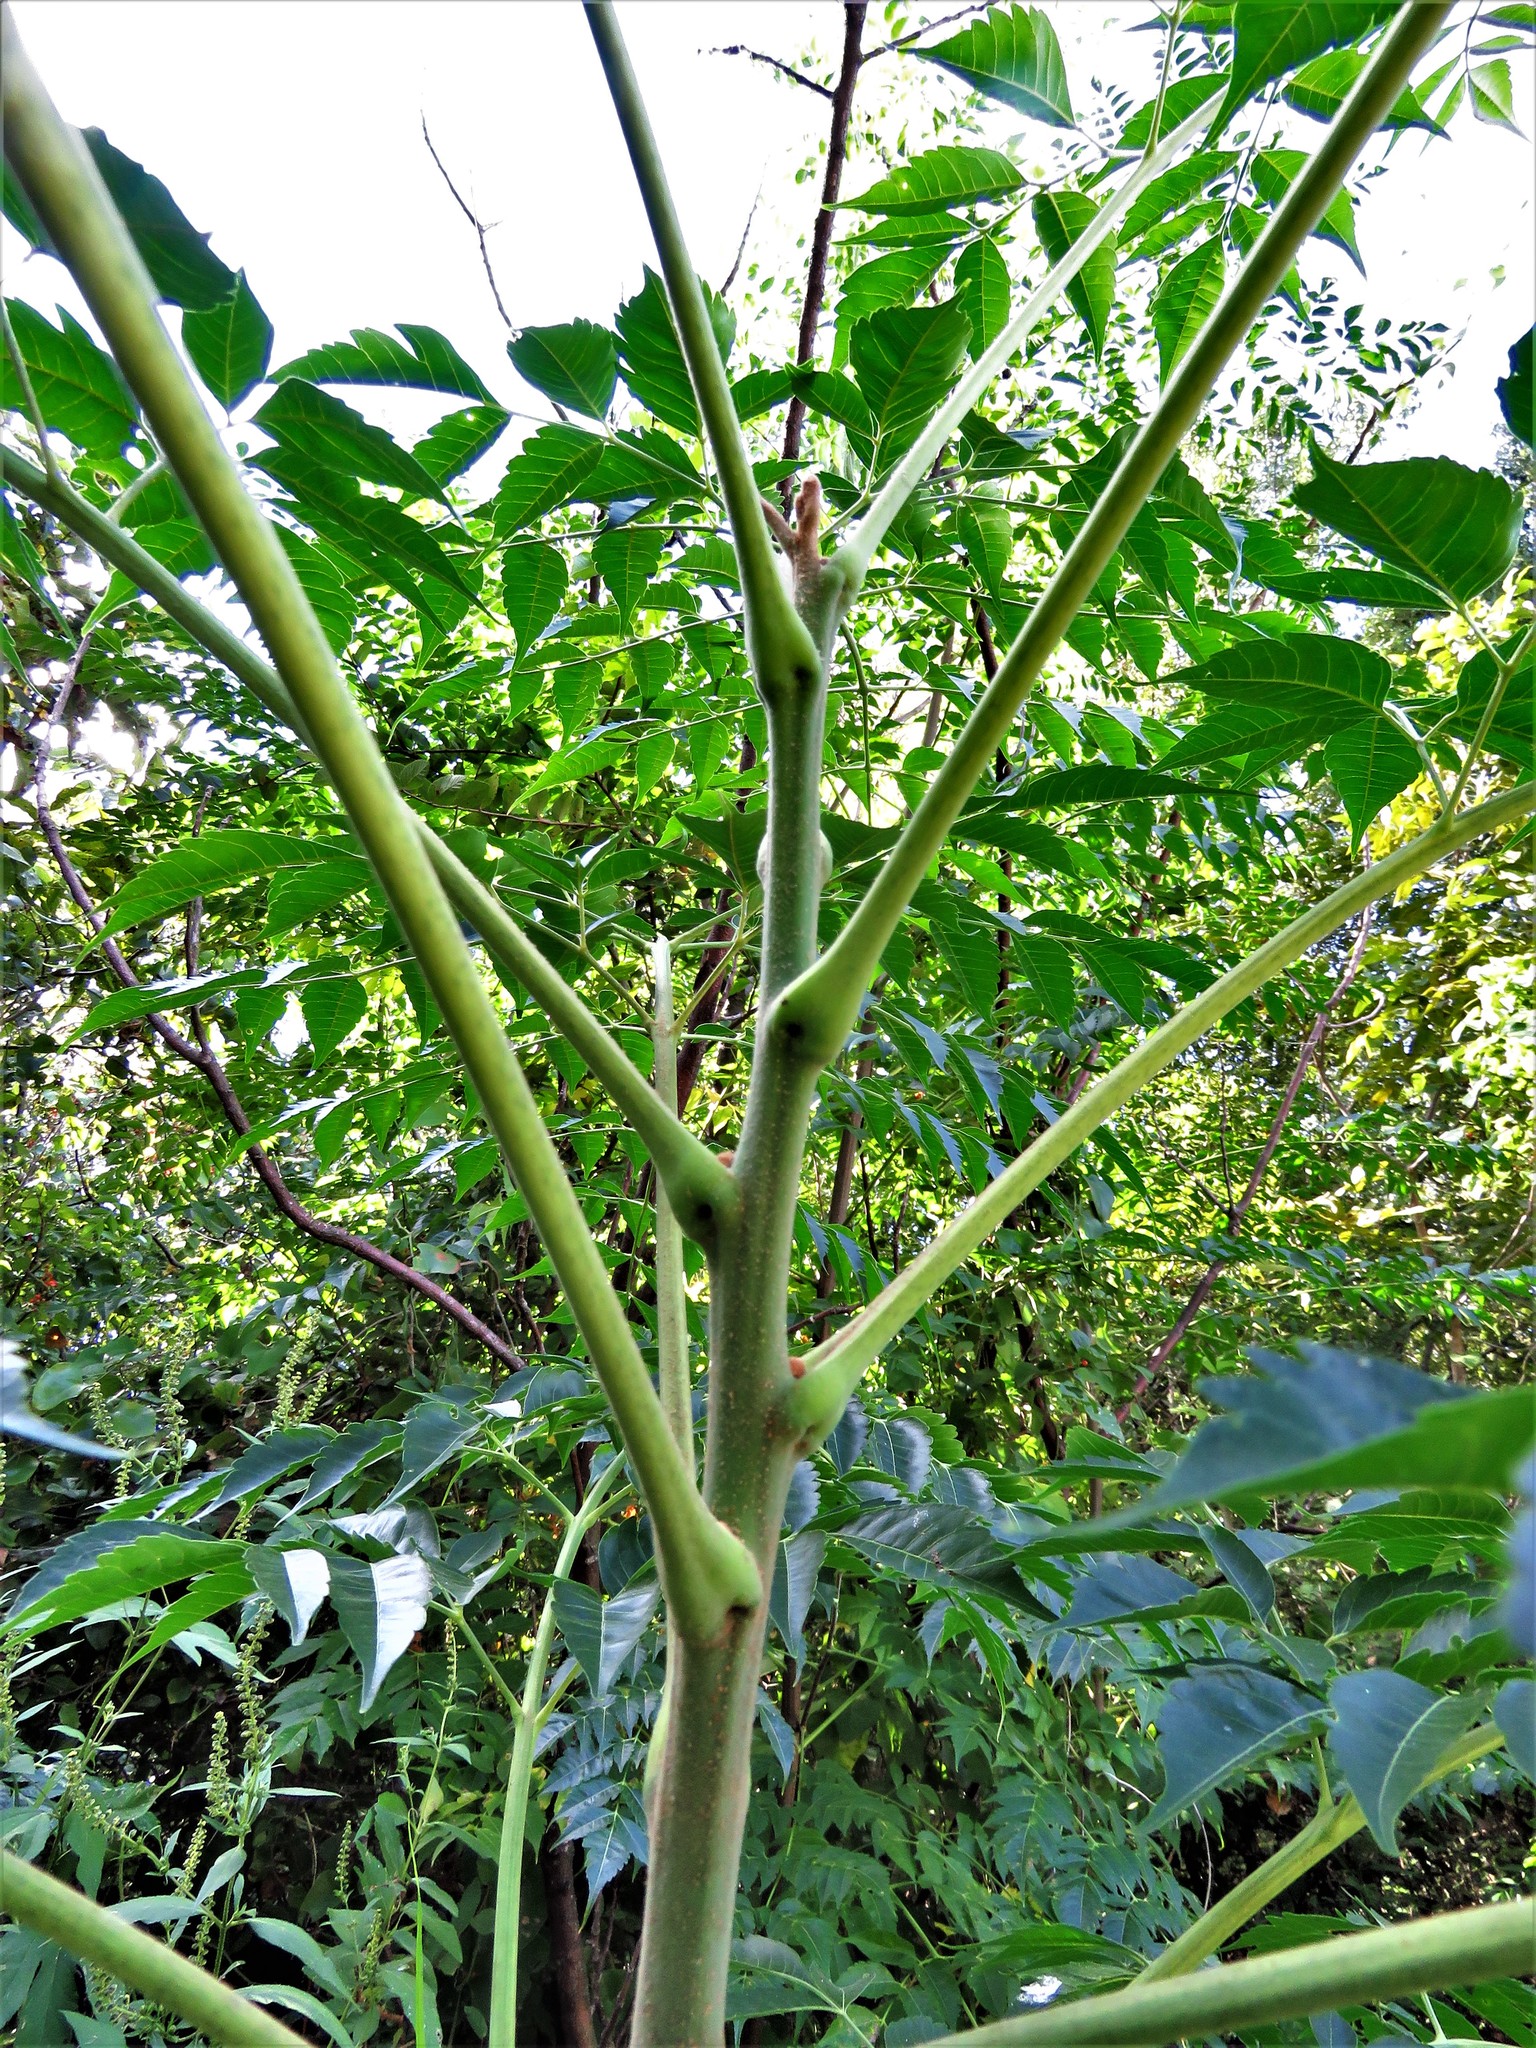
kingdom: Plantae
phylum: Tracheophyta
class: Magnoliopsida
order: Sapindales
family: Meliaceae
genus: Melia
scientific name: Melia azedarach
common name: Chinaberrytree
